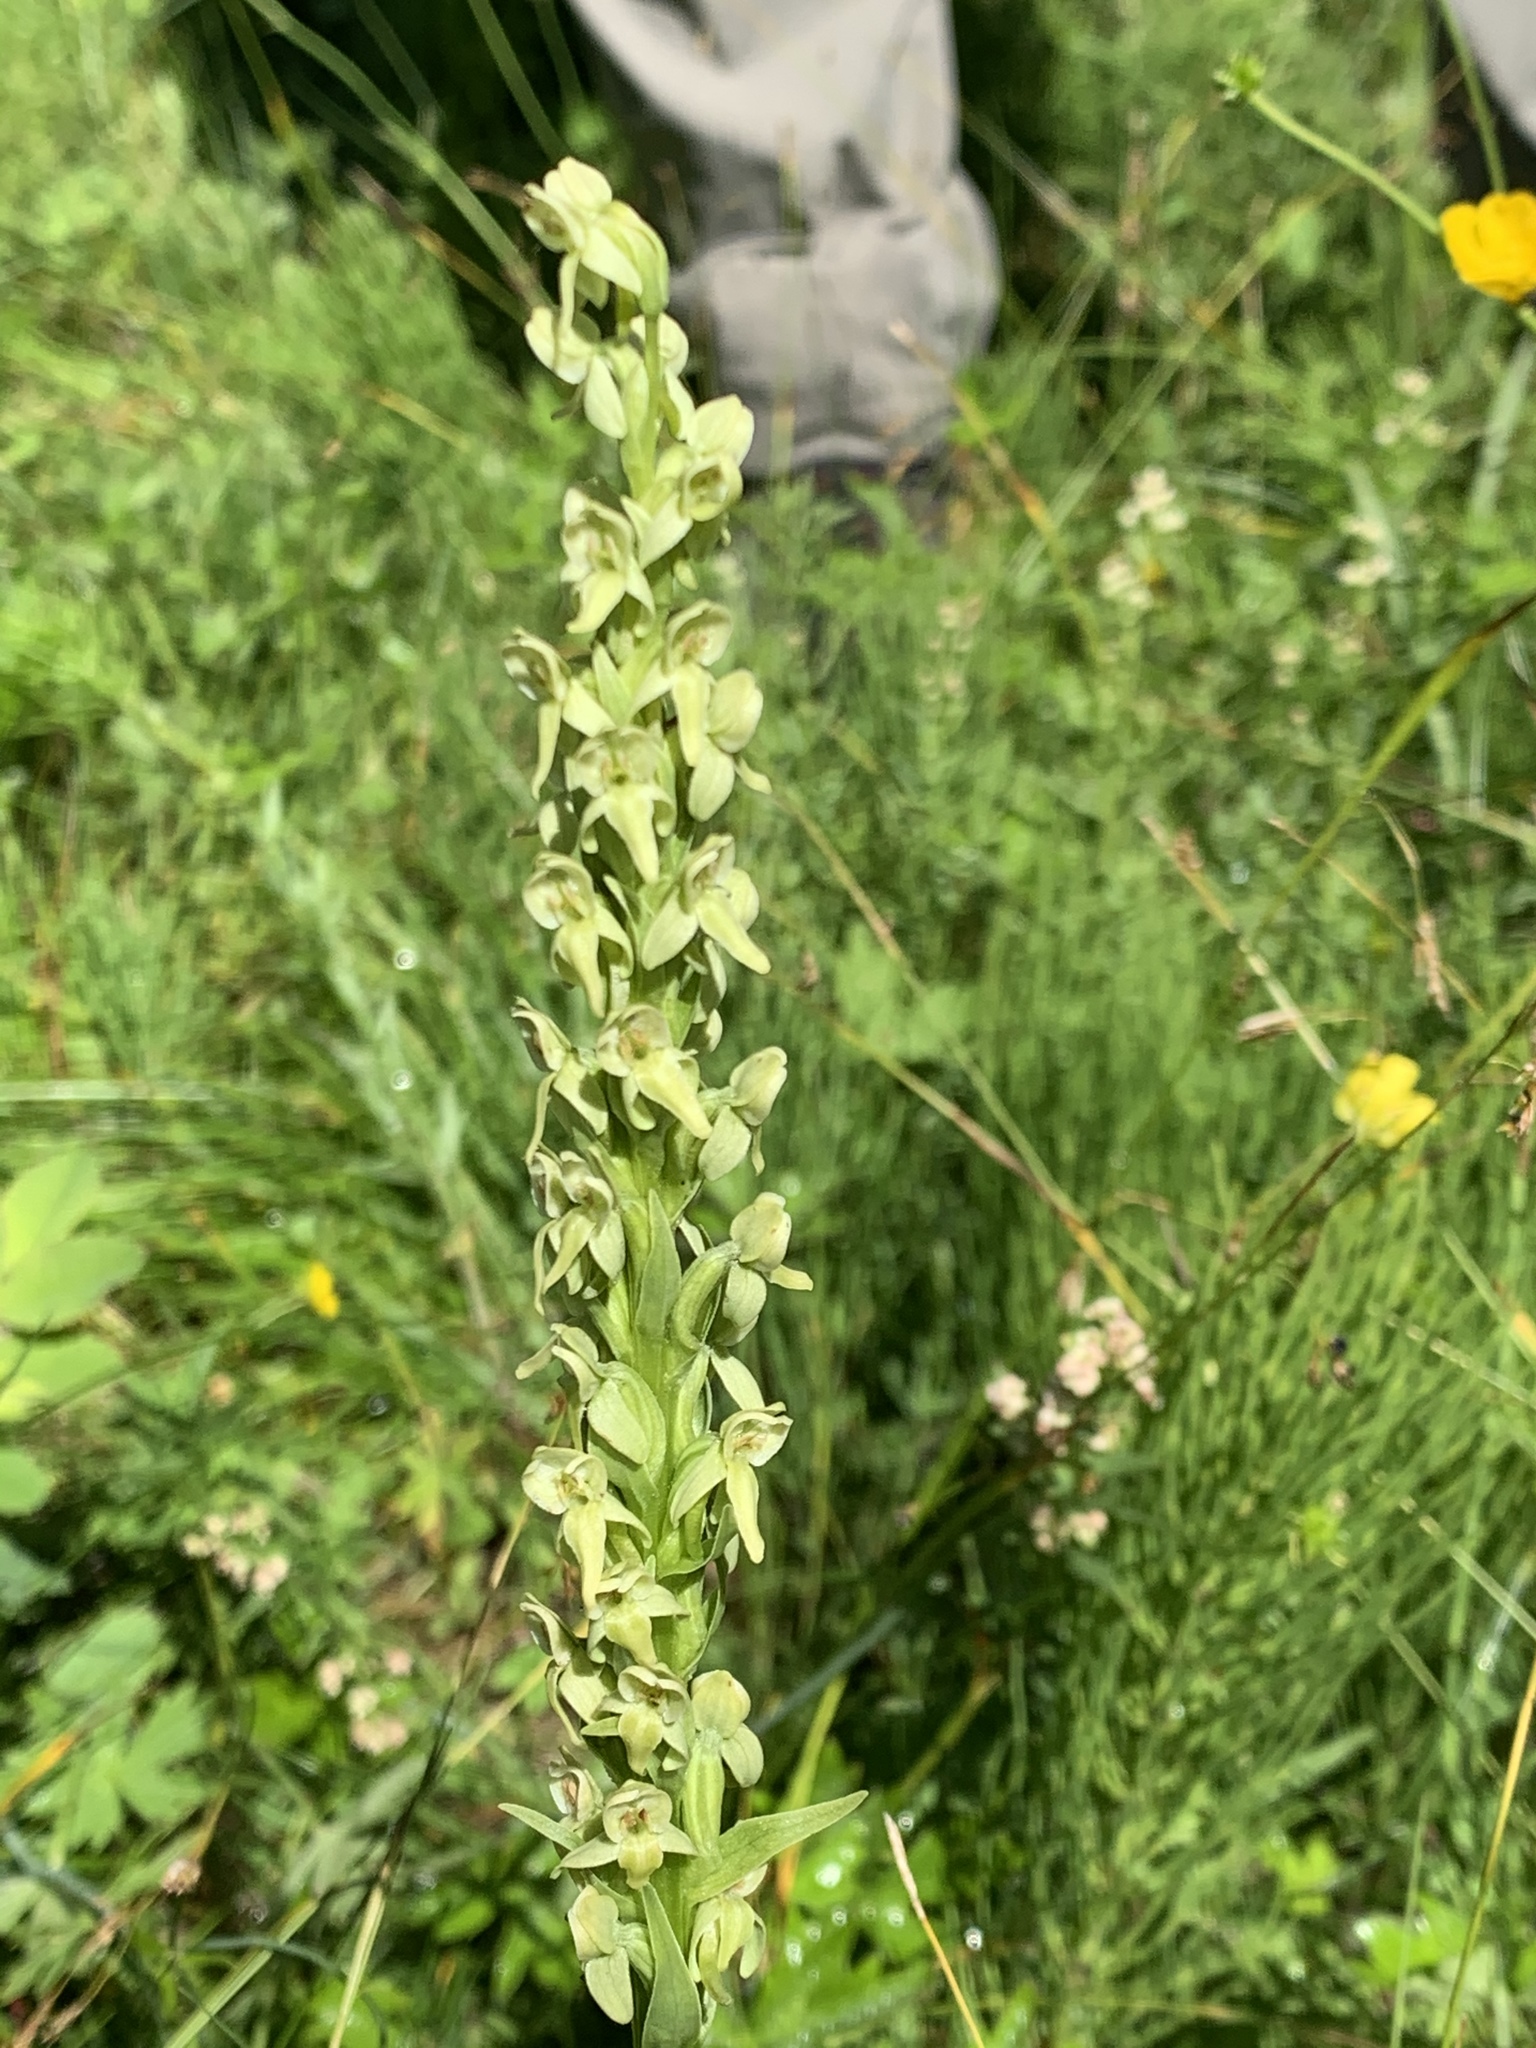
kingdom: Plantae
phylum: Tracheophyta
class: Liliopsida
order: Asparagales
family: Orchidaceae
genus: Platanthera
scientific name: Platanthera huronensis
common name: Fragrant green orchid
